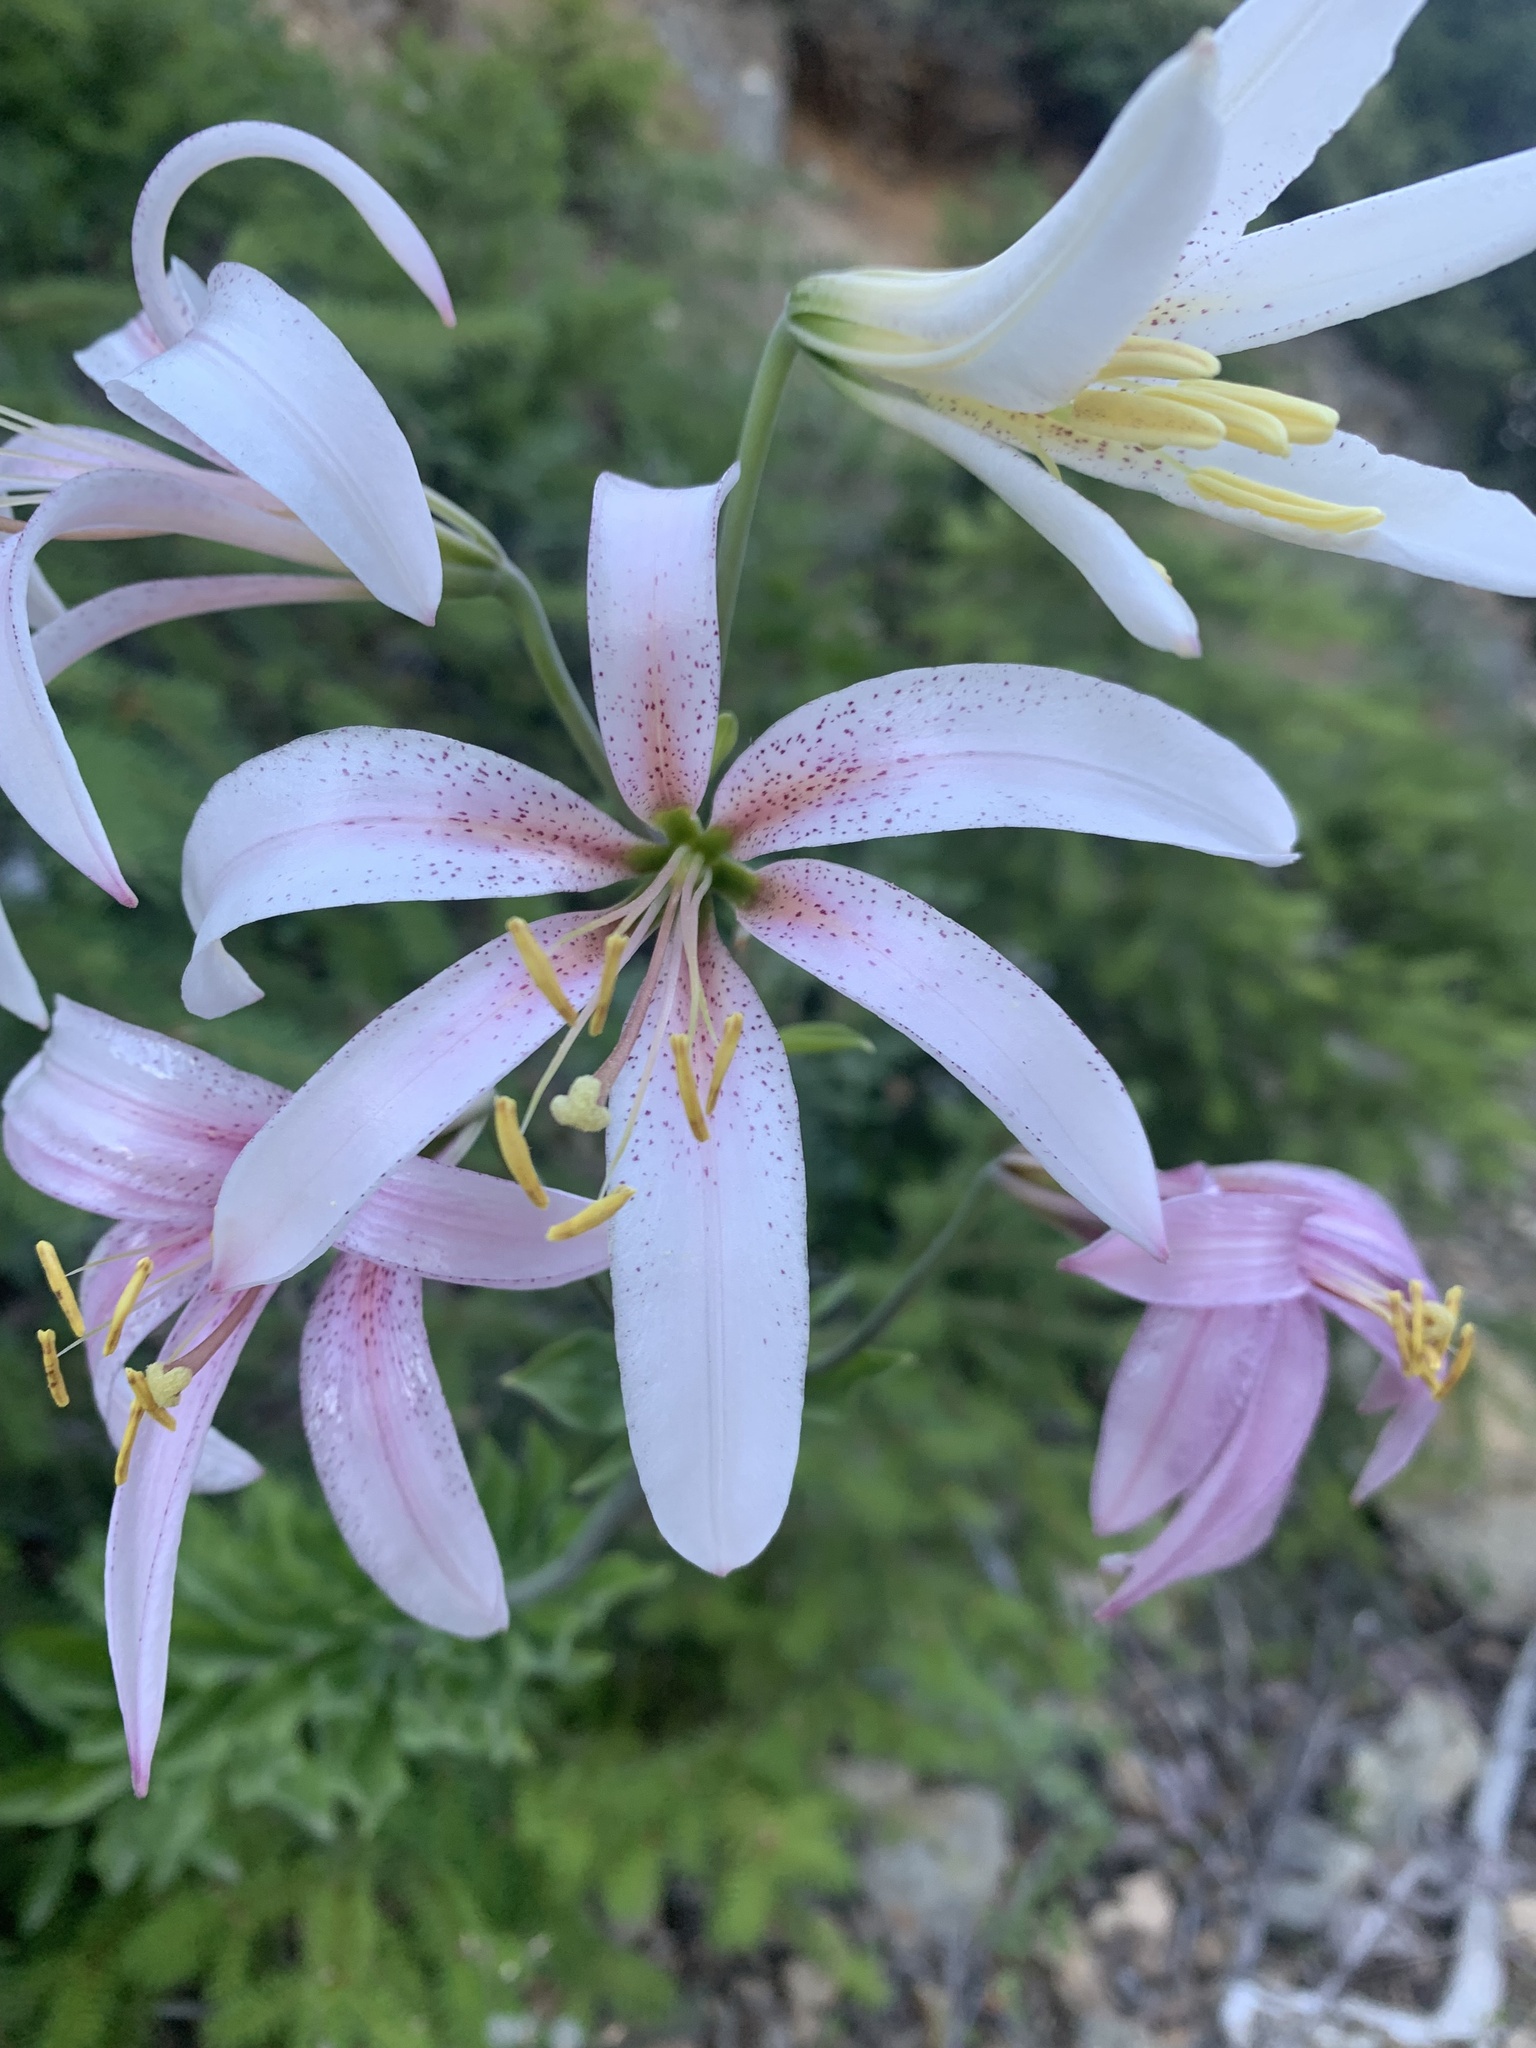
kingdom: Plantae
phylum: Tracheophyta
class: Liliopsida
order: Liliales
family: Liliaceae
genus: Lilium
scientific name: Lilium washingtonianum
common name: Washington lily
